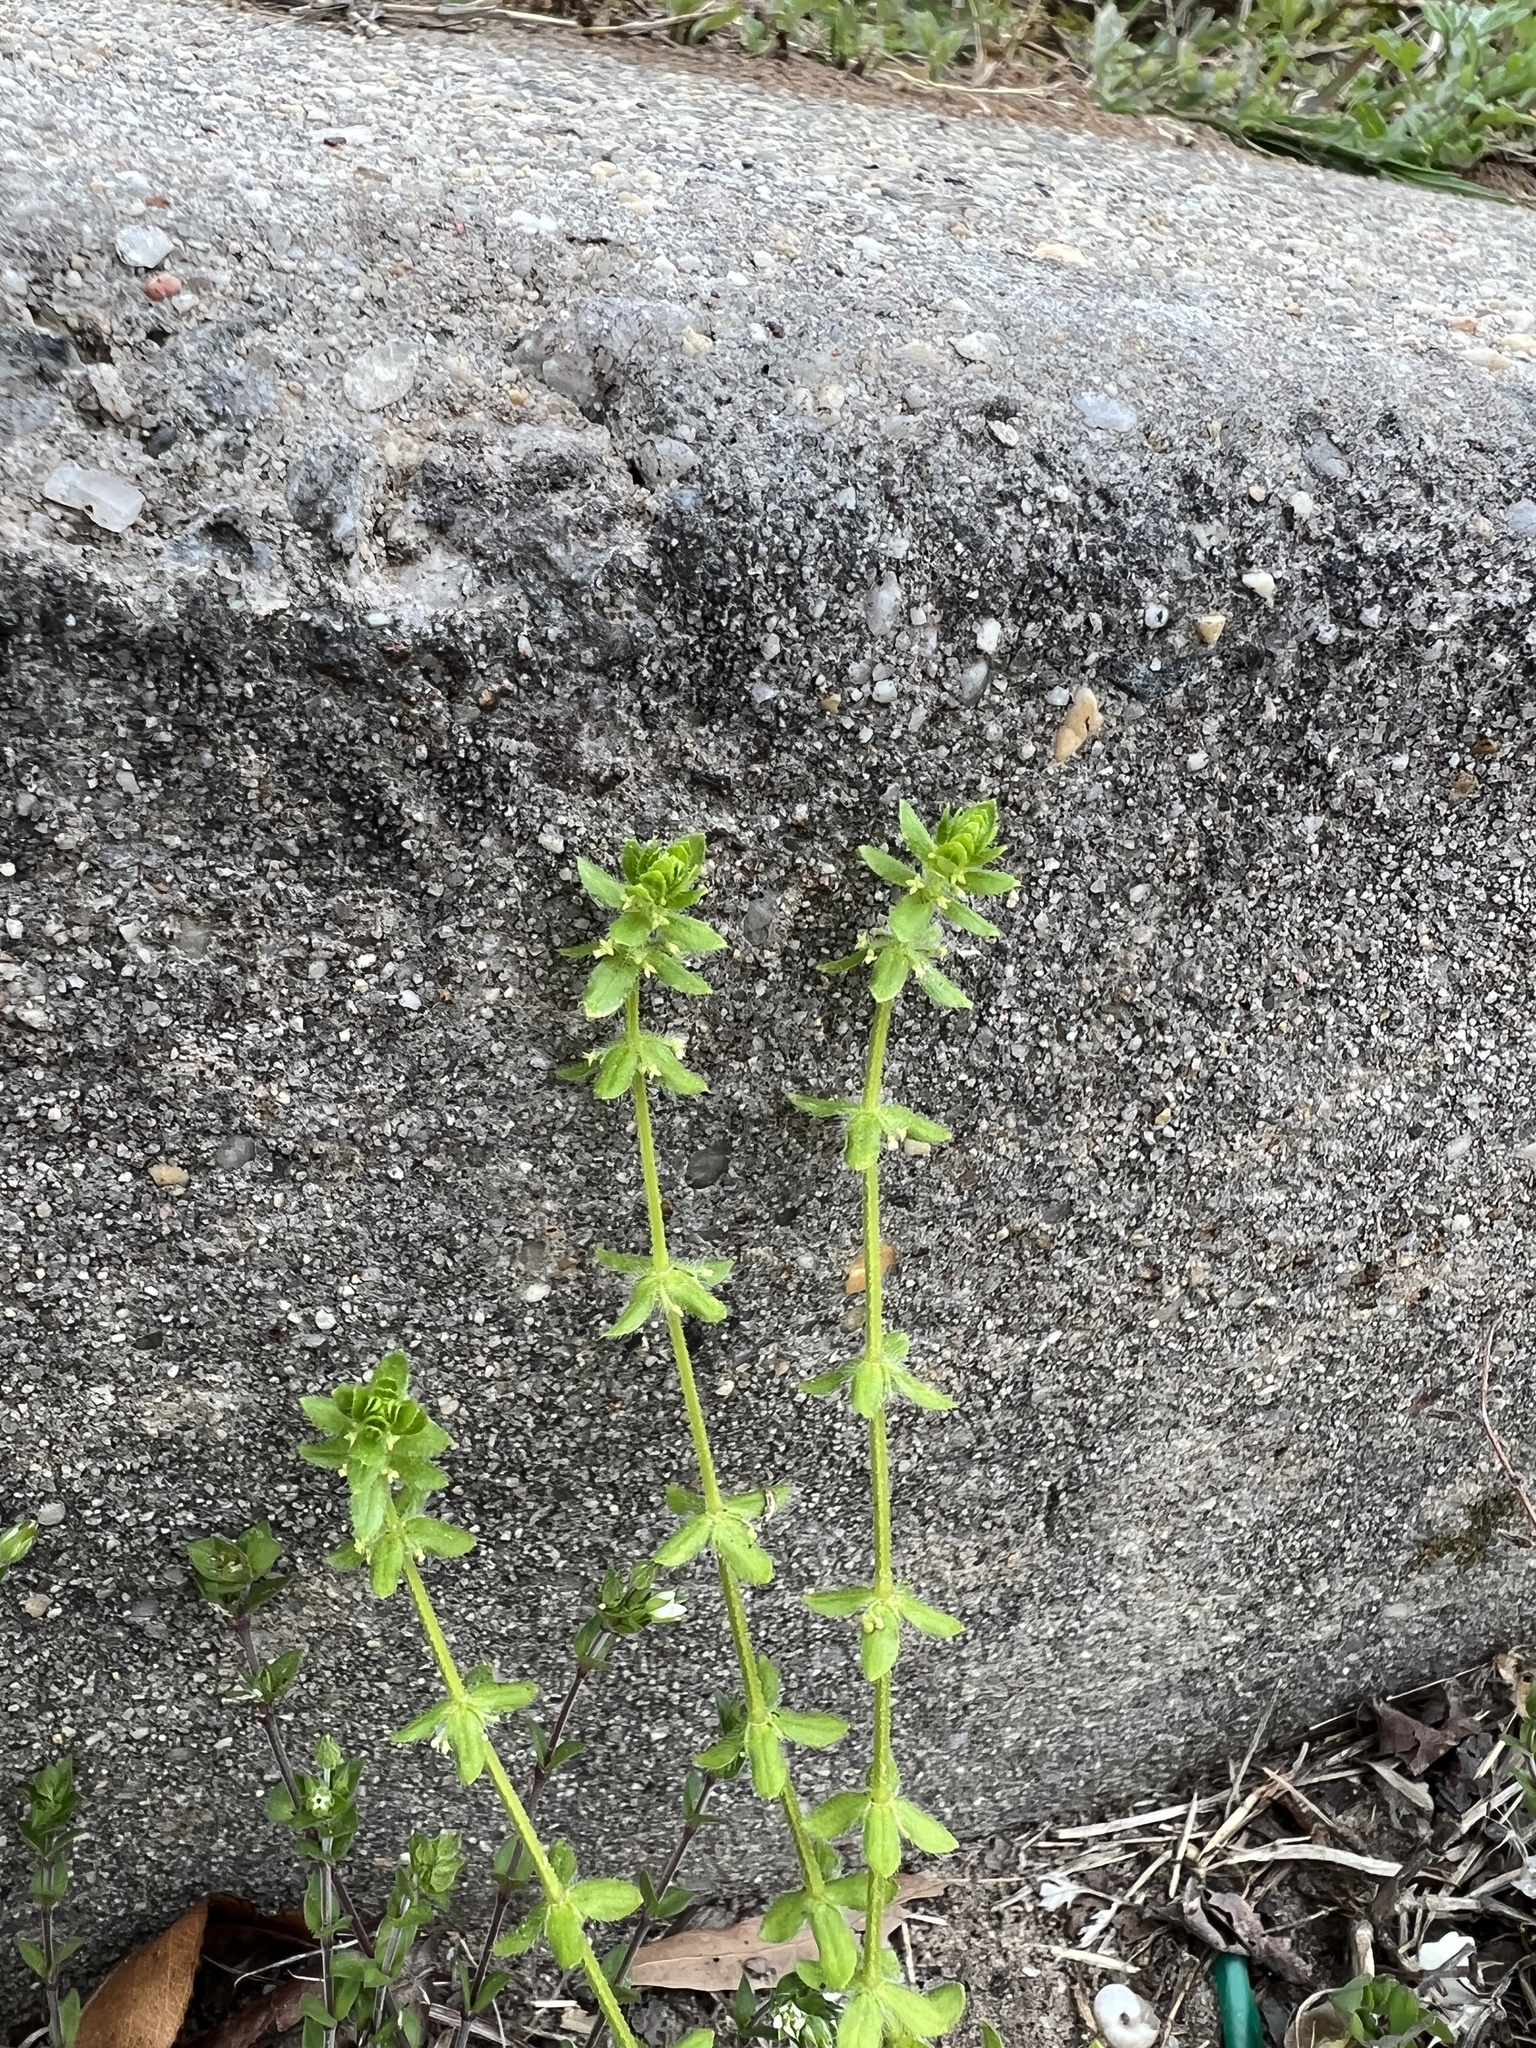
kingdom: Plantae
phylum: Tracheophyta
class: Magnoliopsida
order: Gentianales
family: Rubiaceae
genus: Cruciata
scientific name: Cruciata pedemontana
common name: Piedmont bedstraw
